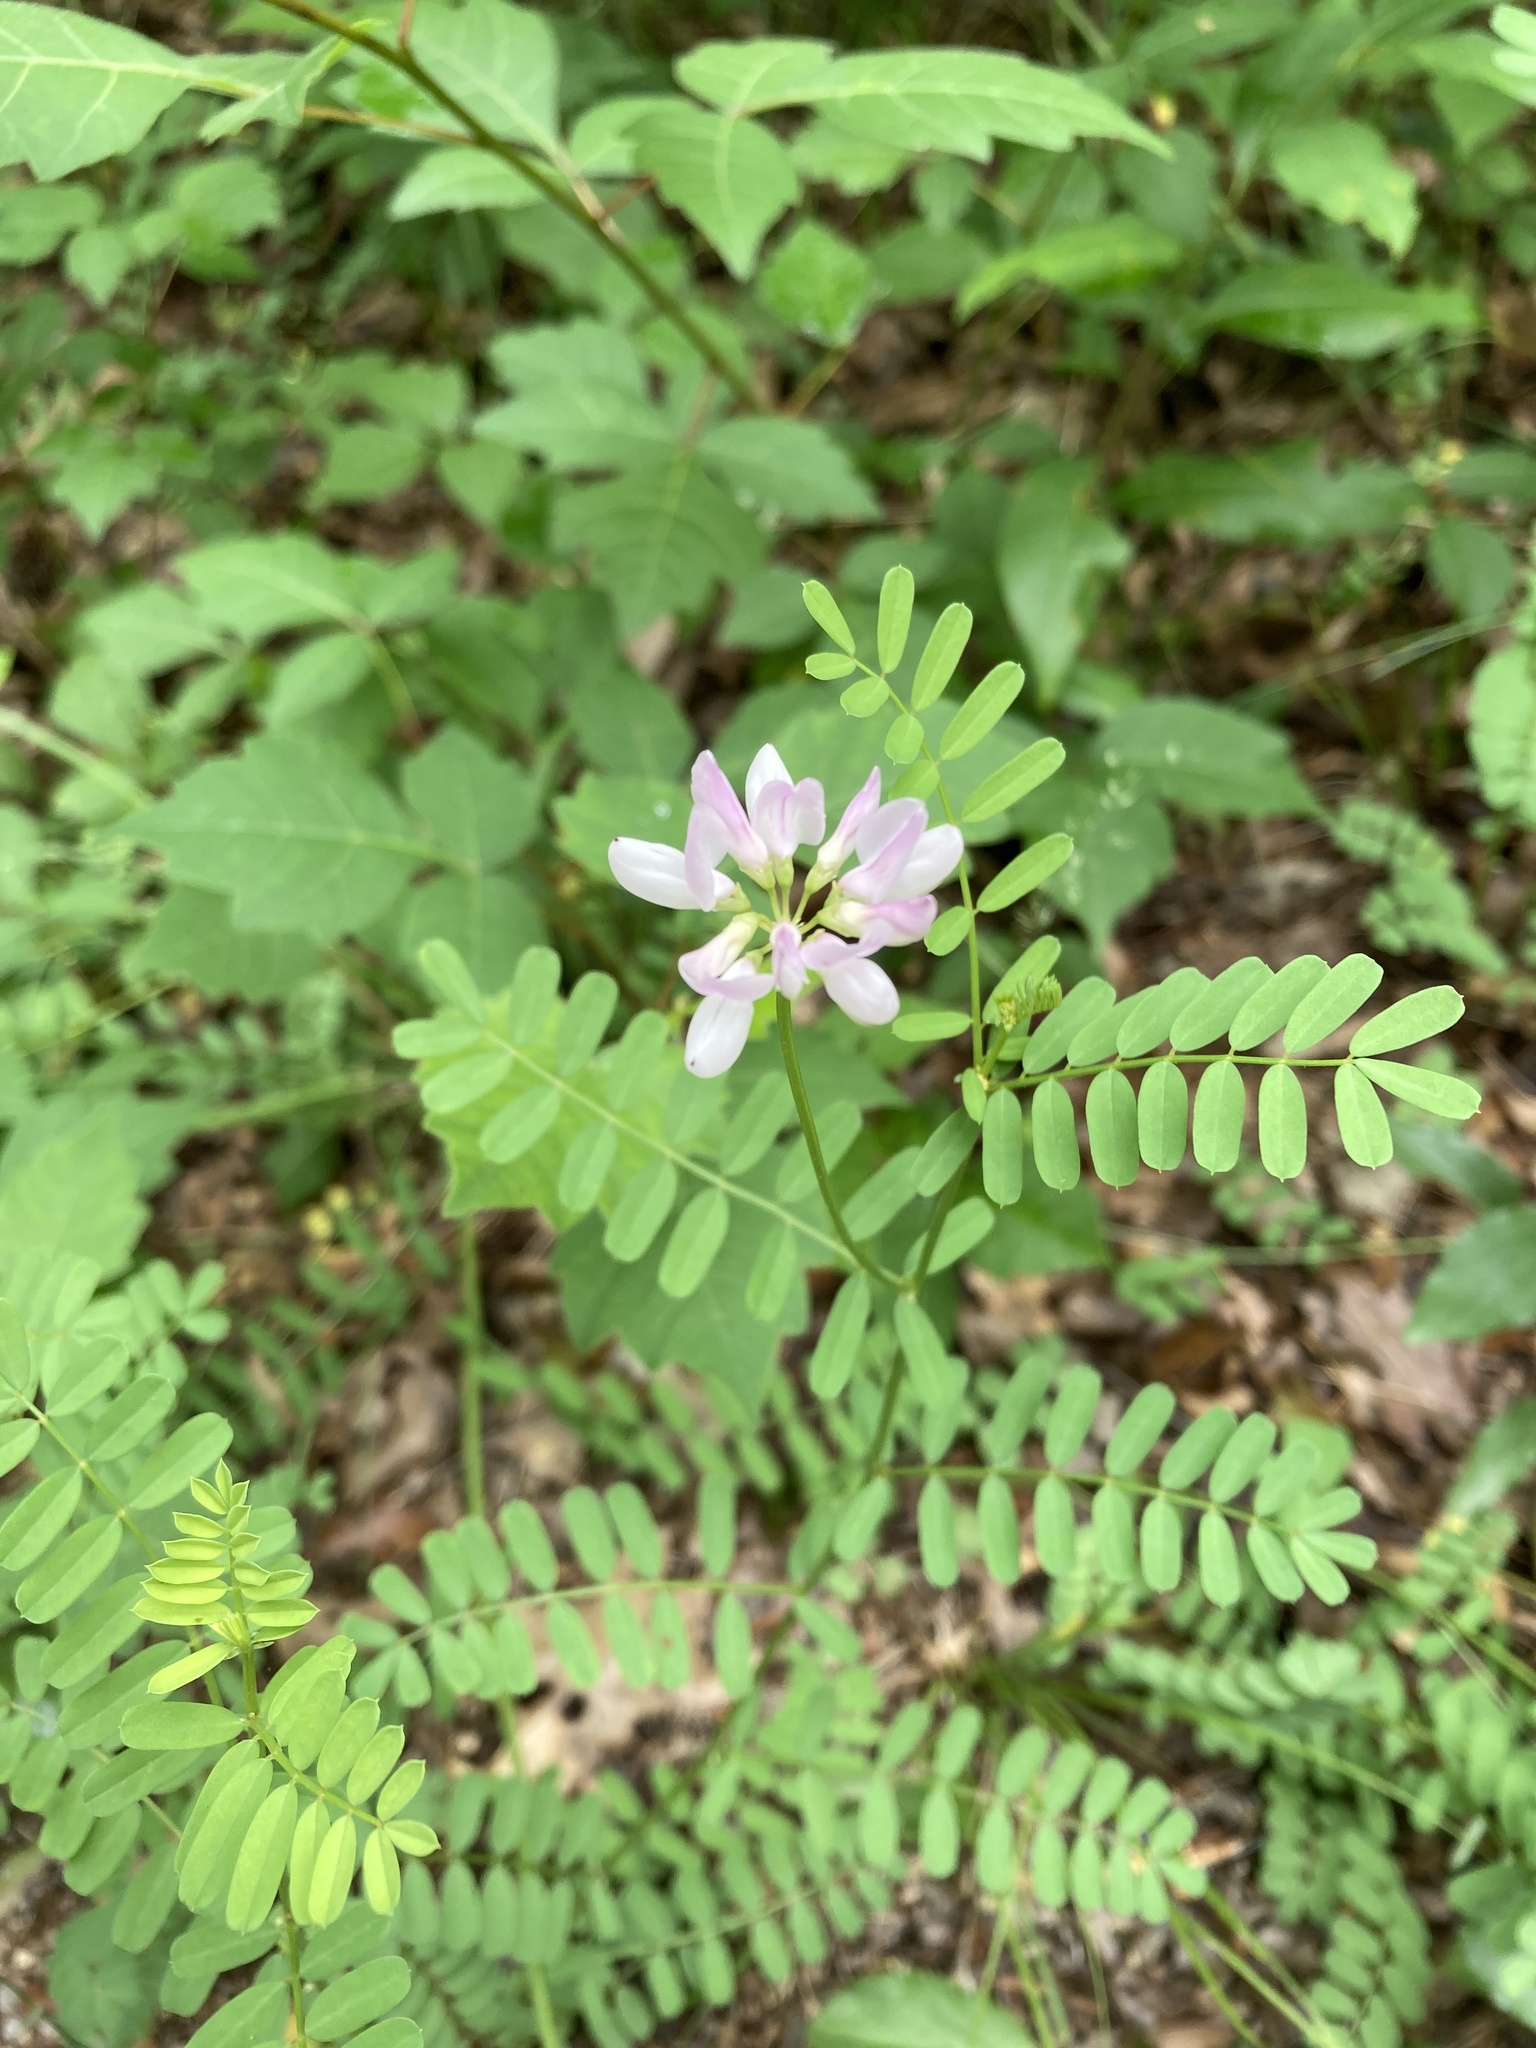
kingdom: Plantae
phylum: Tracheophyta
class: Magnoliopsida
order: Fabales
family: Fabaceae
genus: Coronilla
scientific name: Coronilla varia
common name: Crownvetch
